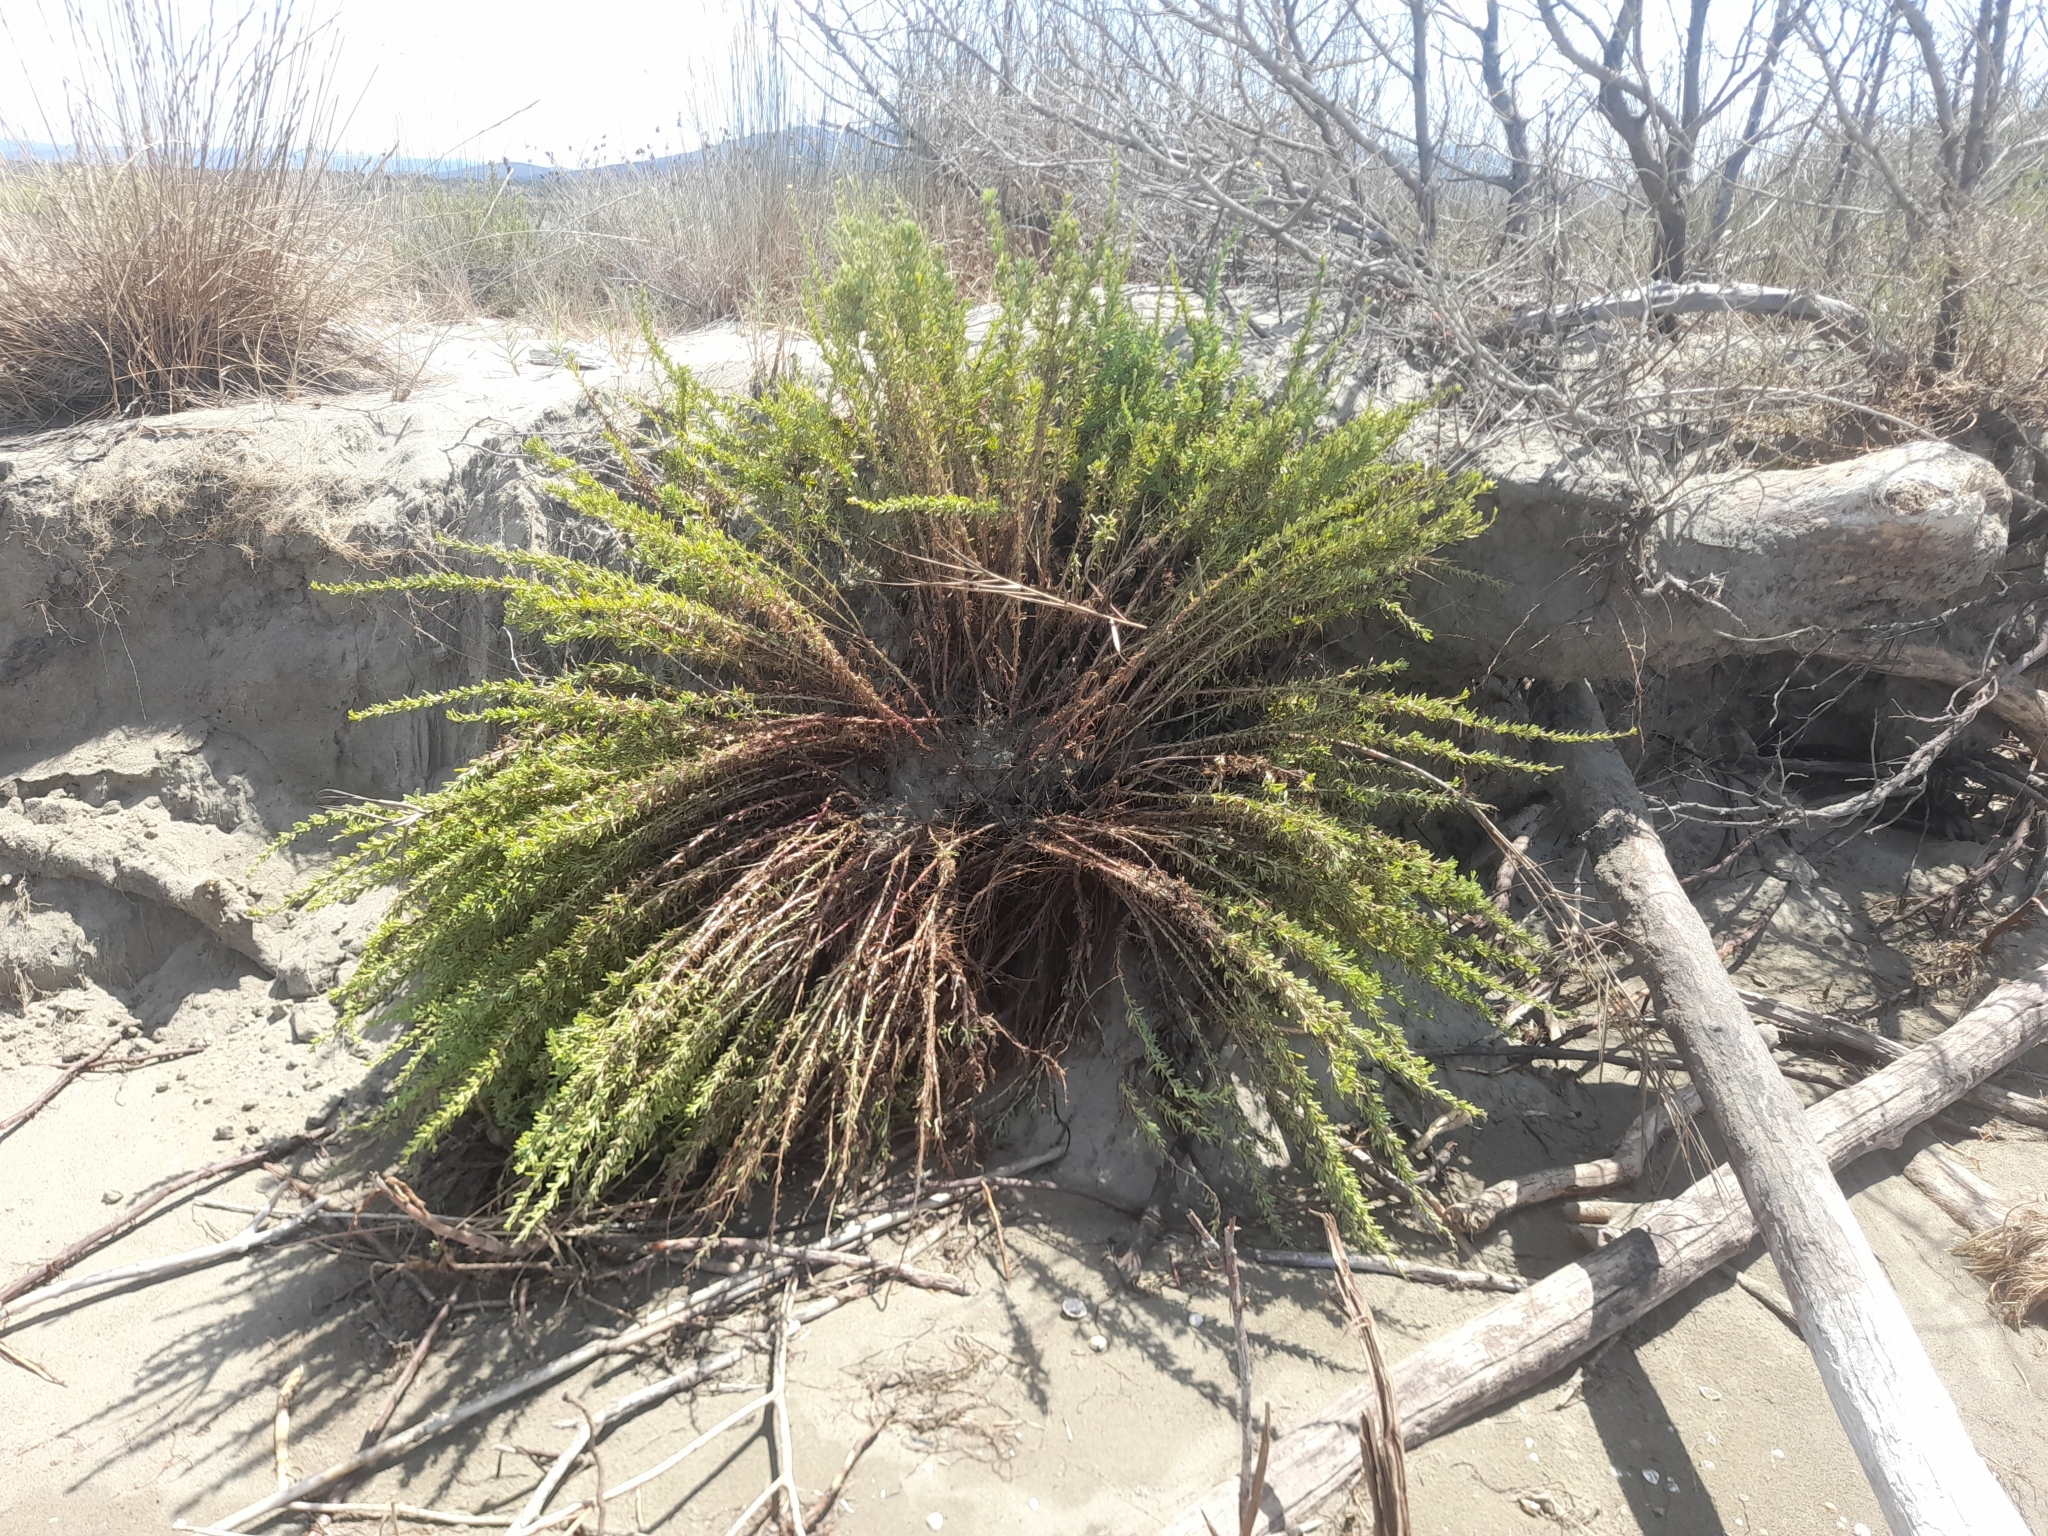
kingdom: Plantae
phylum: Tracheophyta
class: Magnoliopsida
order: Asterales
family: Asteraceae
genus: Limbarda
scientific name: Limbarda crithmoides
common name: Golden samphire
